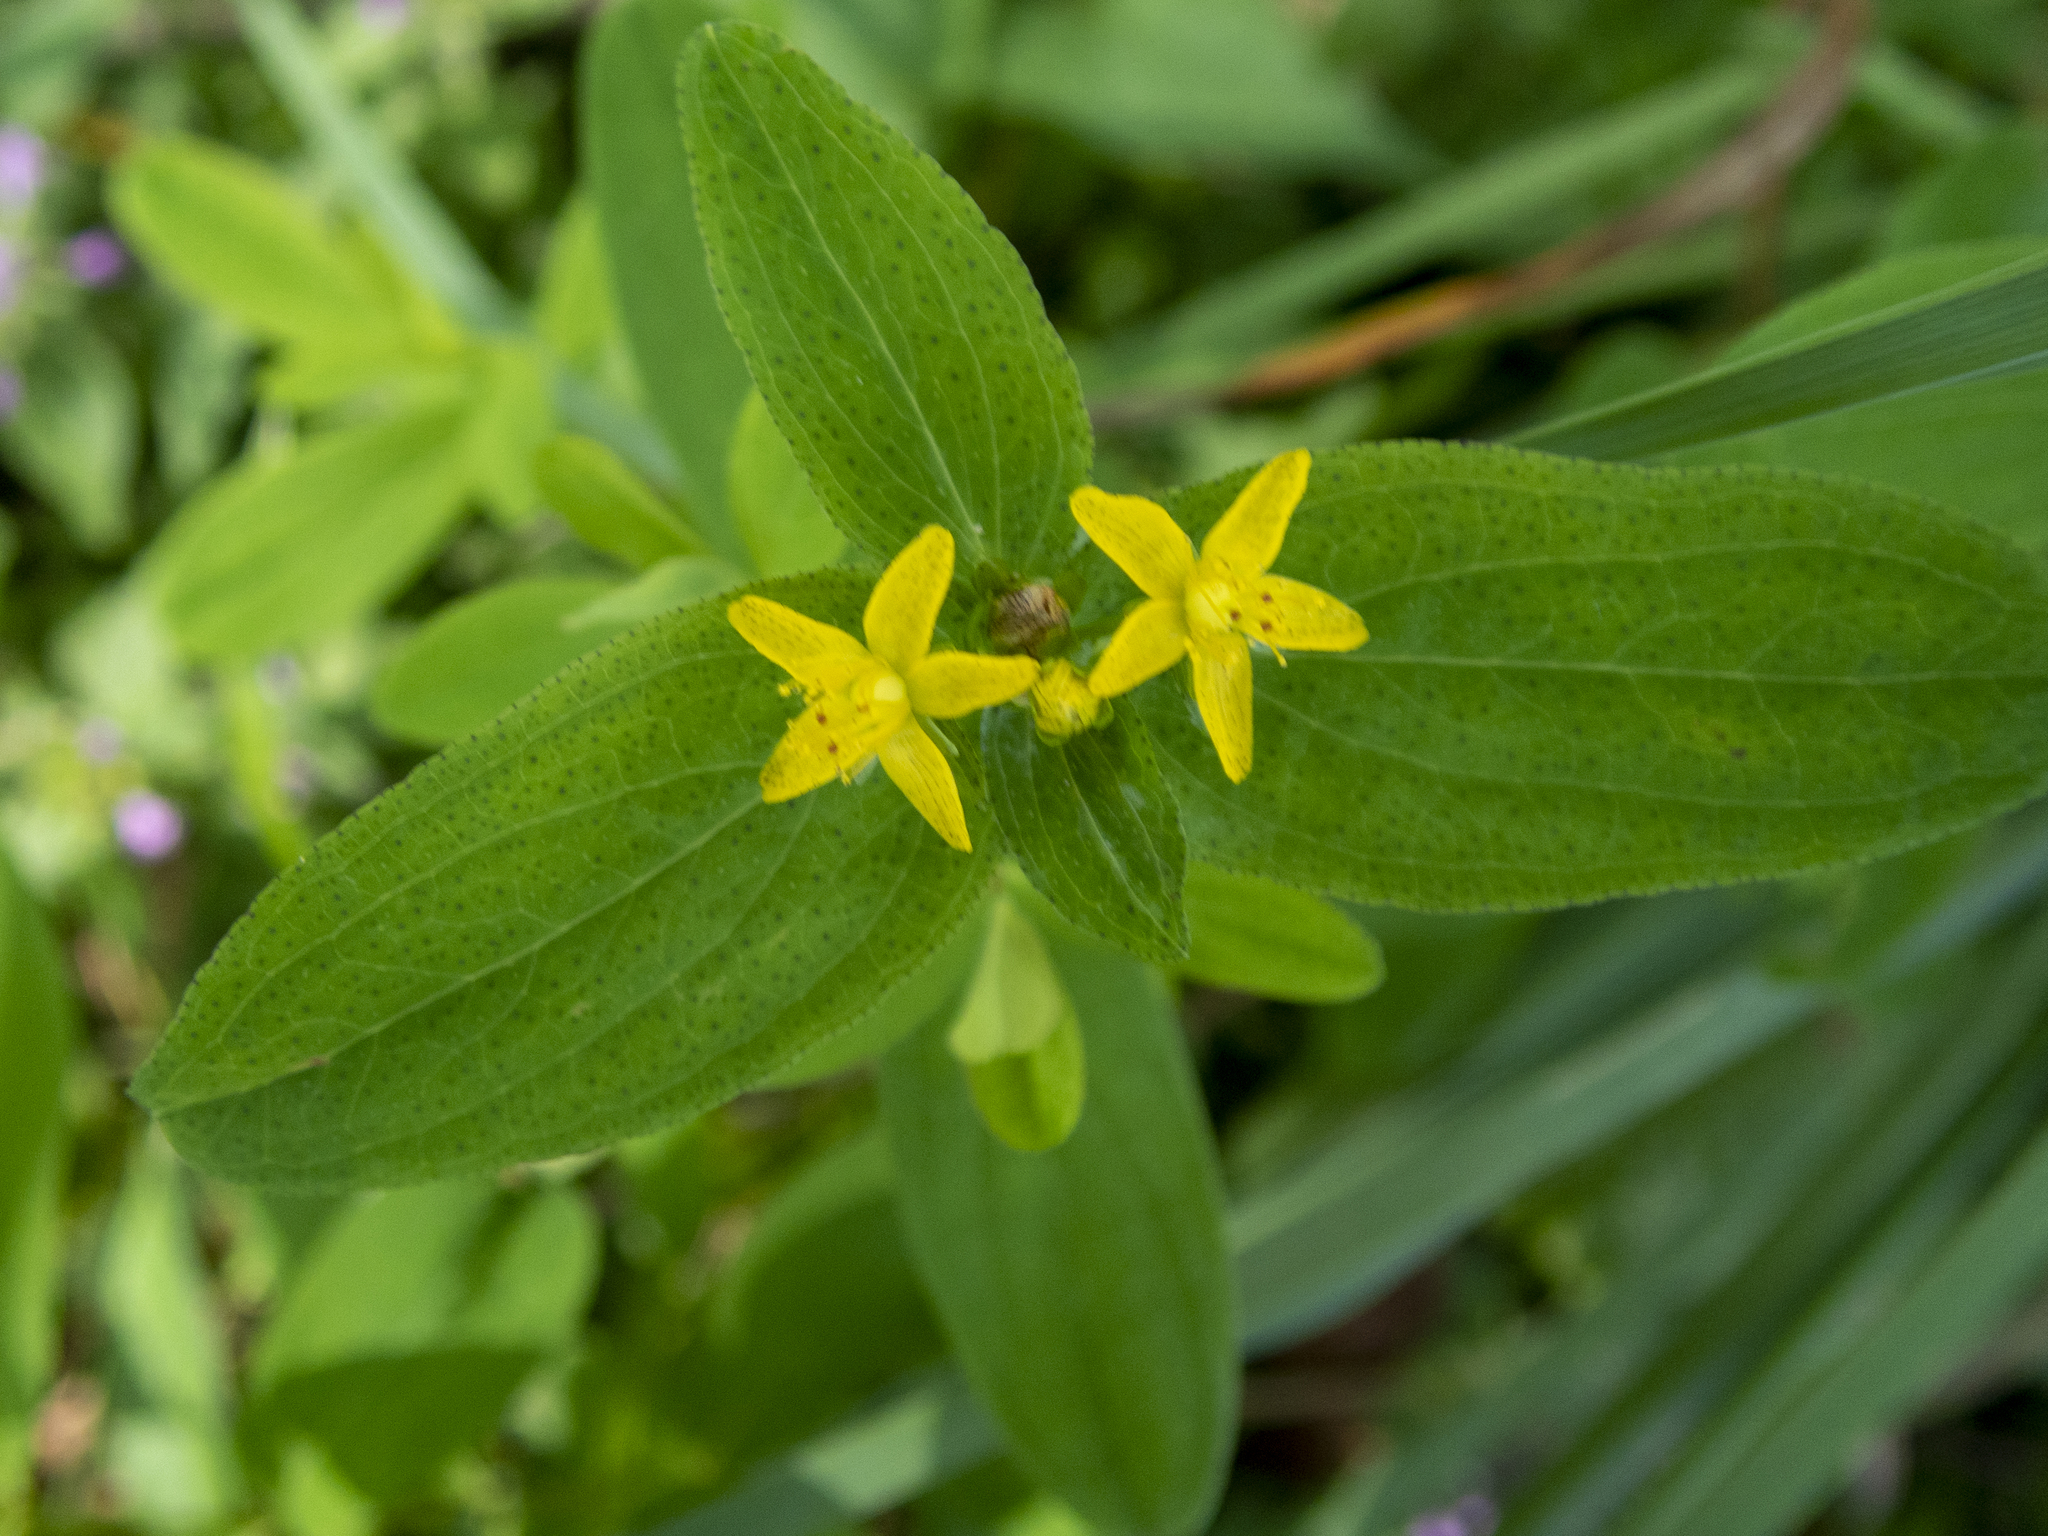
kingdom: Plantae
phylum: Tracheophyta
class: Magnoliopsida
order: Malpighiales
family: Hypericaceae
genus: Hypericum
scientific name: Hypericum punctatum
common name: Spotted st. john's-wort
